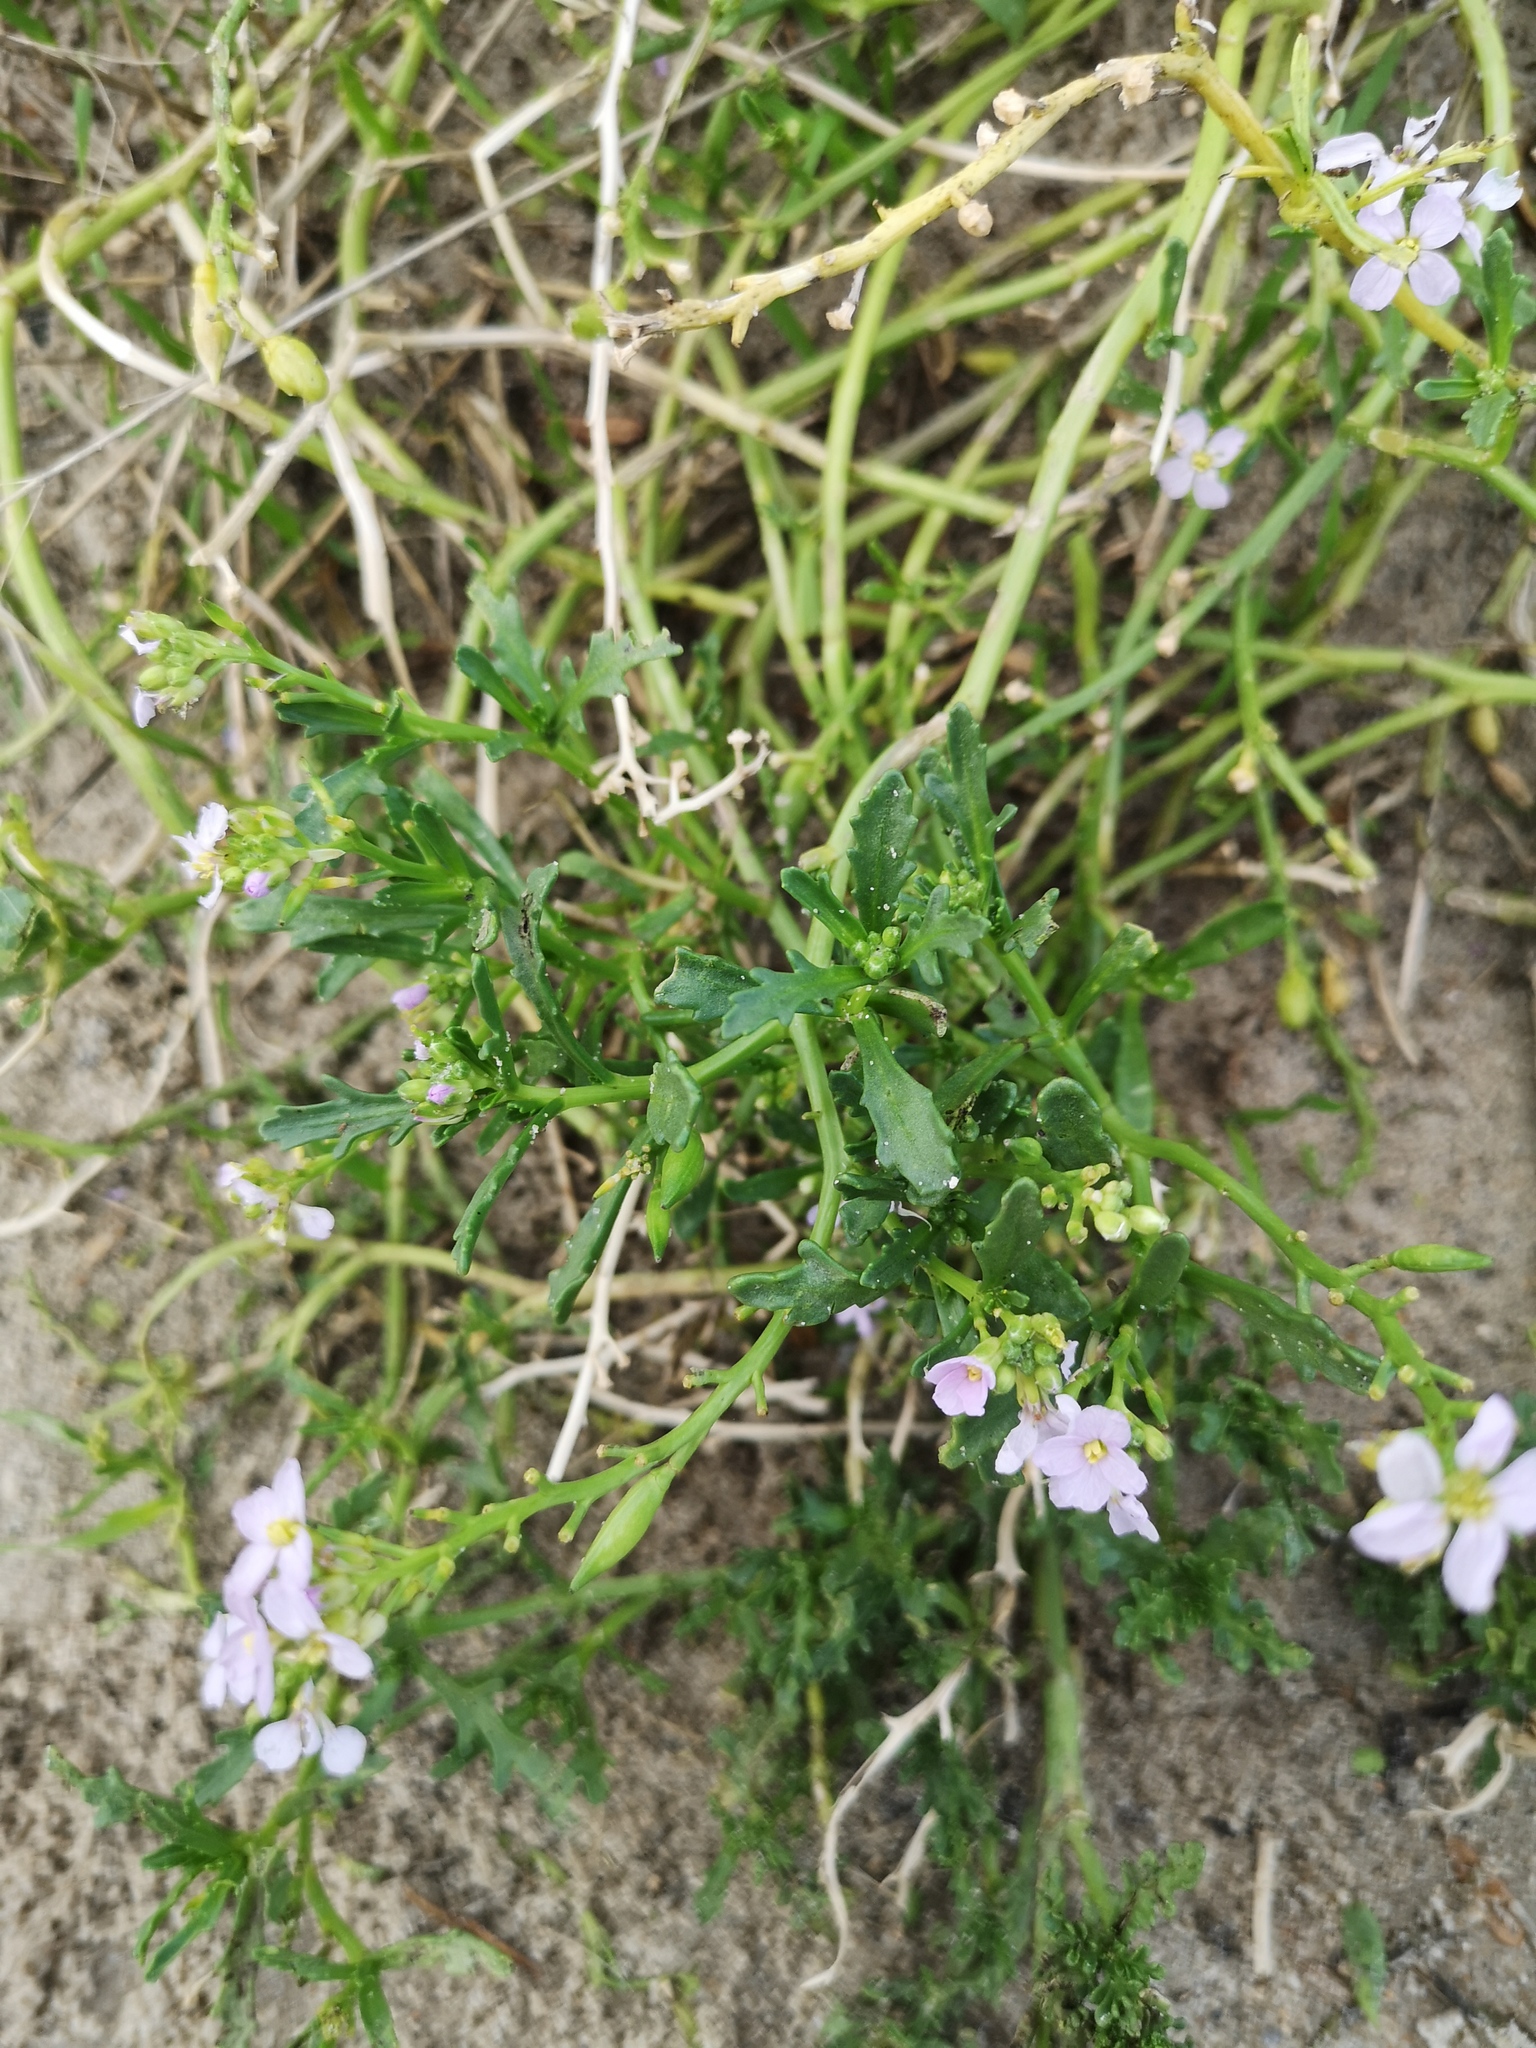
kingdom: Plantae
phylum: Tracheophyta
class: Magnoliopsida
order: Brassicales
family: Brassicaceae
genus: Cakile
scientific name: Cakile maritima
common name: Sea rocket
